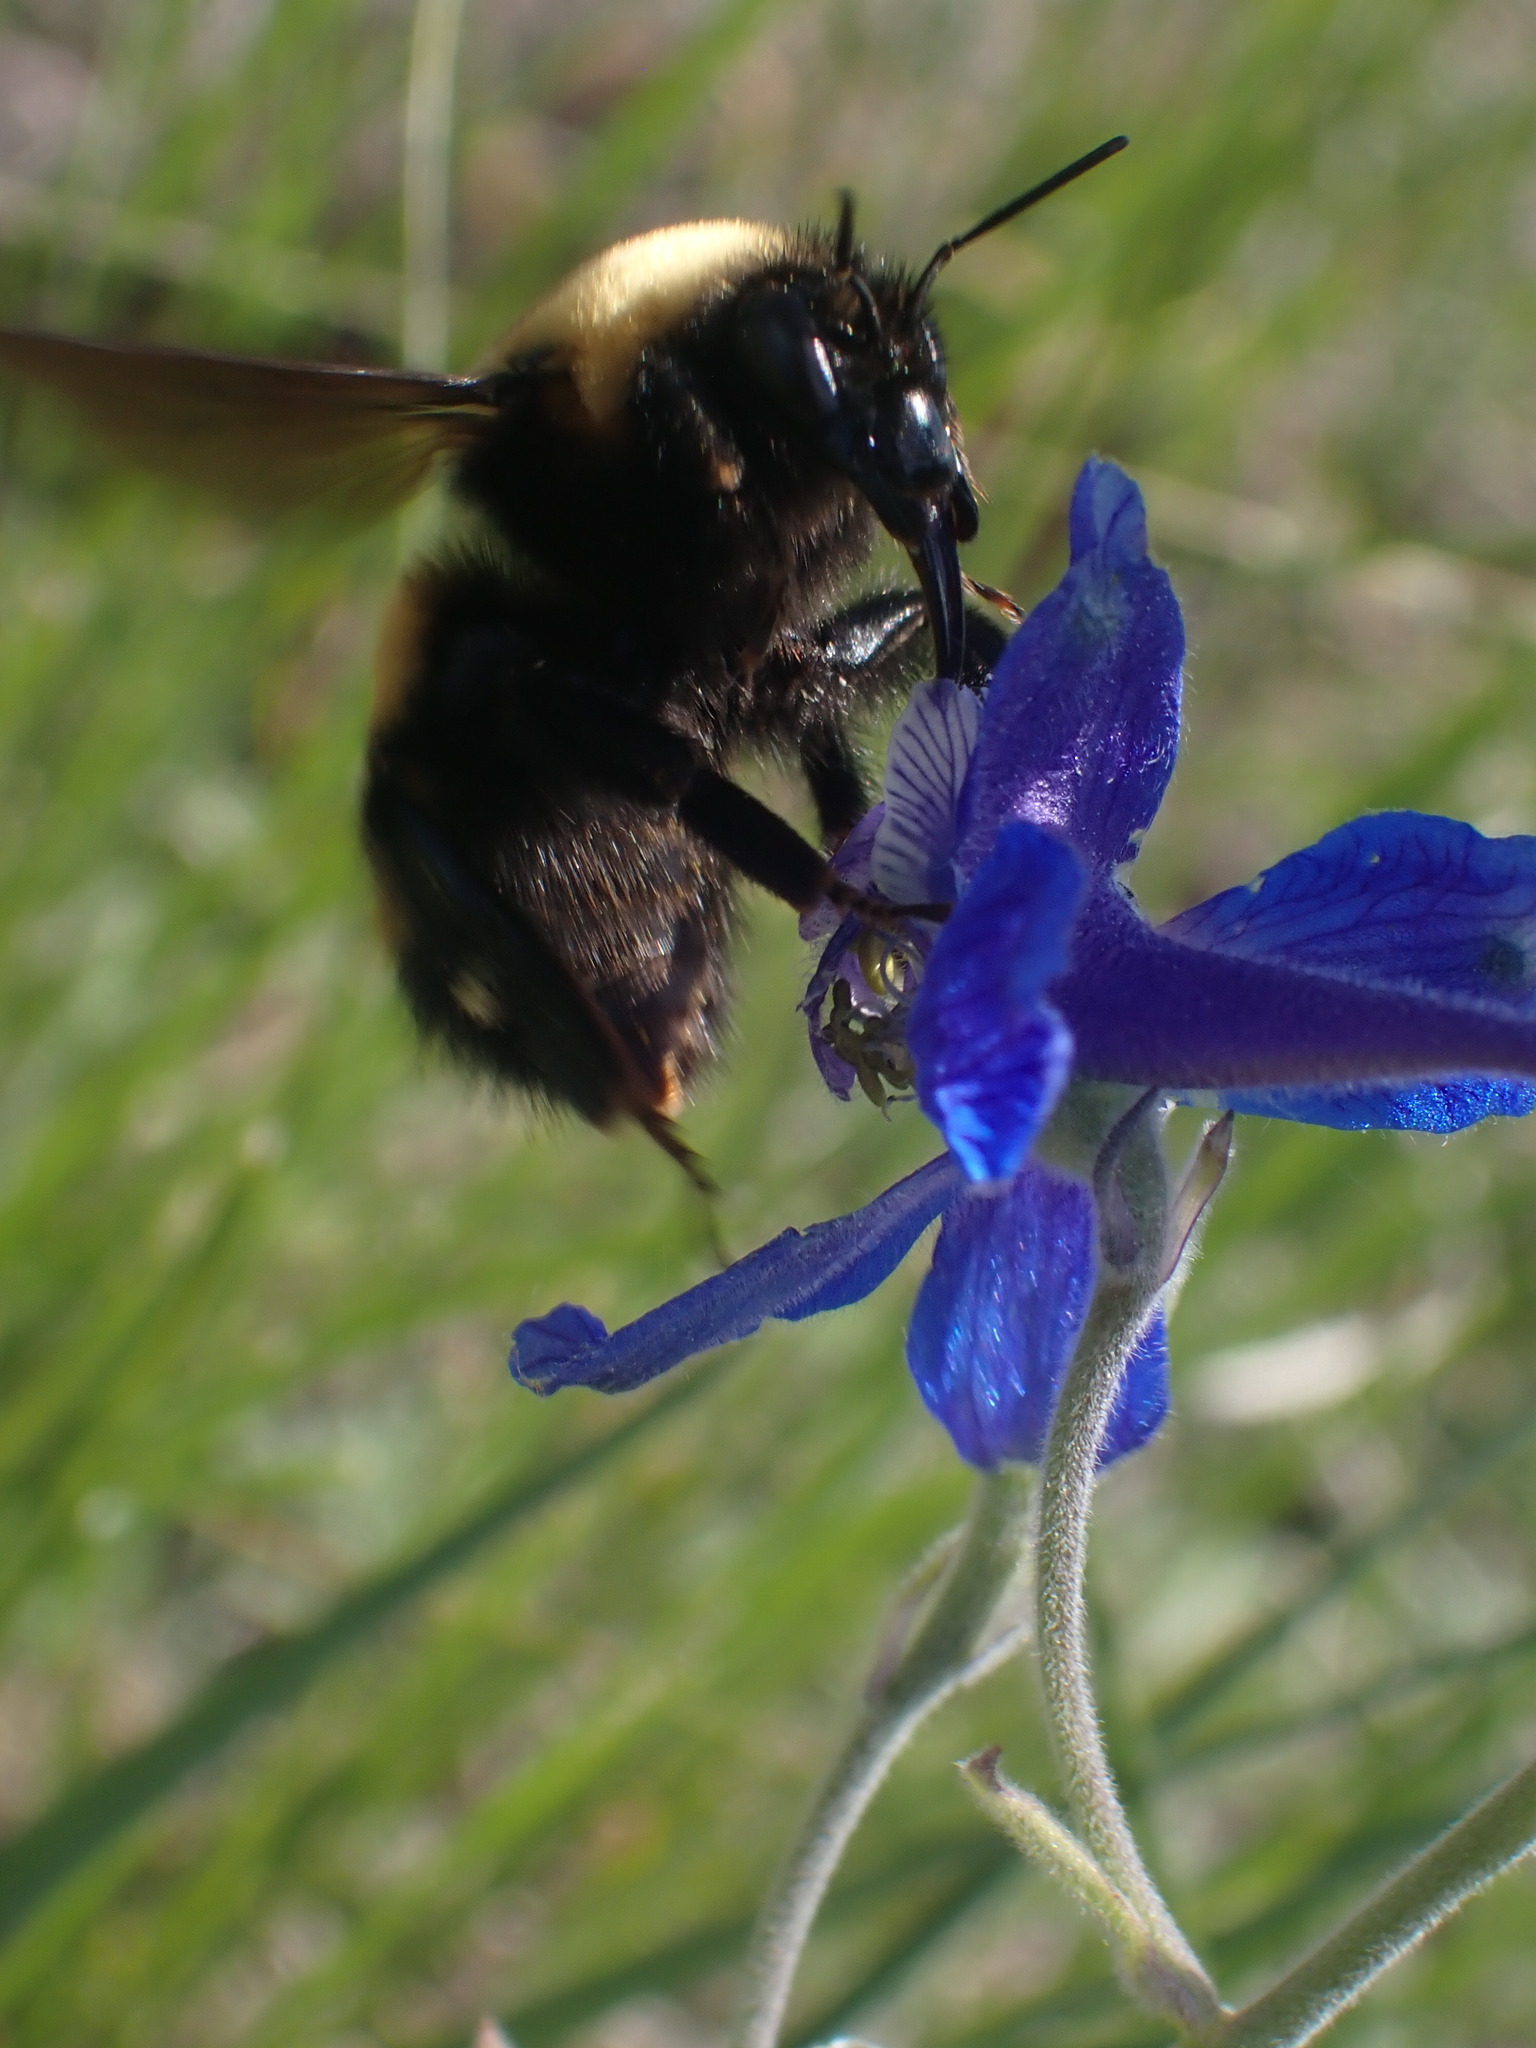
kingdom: Animalia
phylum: Arthropoda
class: Insecta
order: Hymenoptera
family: Apidae
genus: Bombus
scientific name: Bombus nevadensis
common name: Nevada bumble bee
